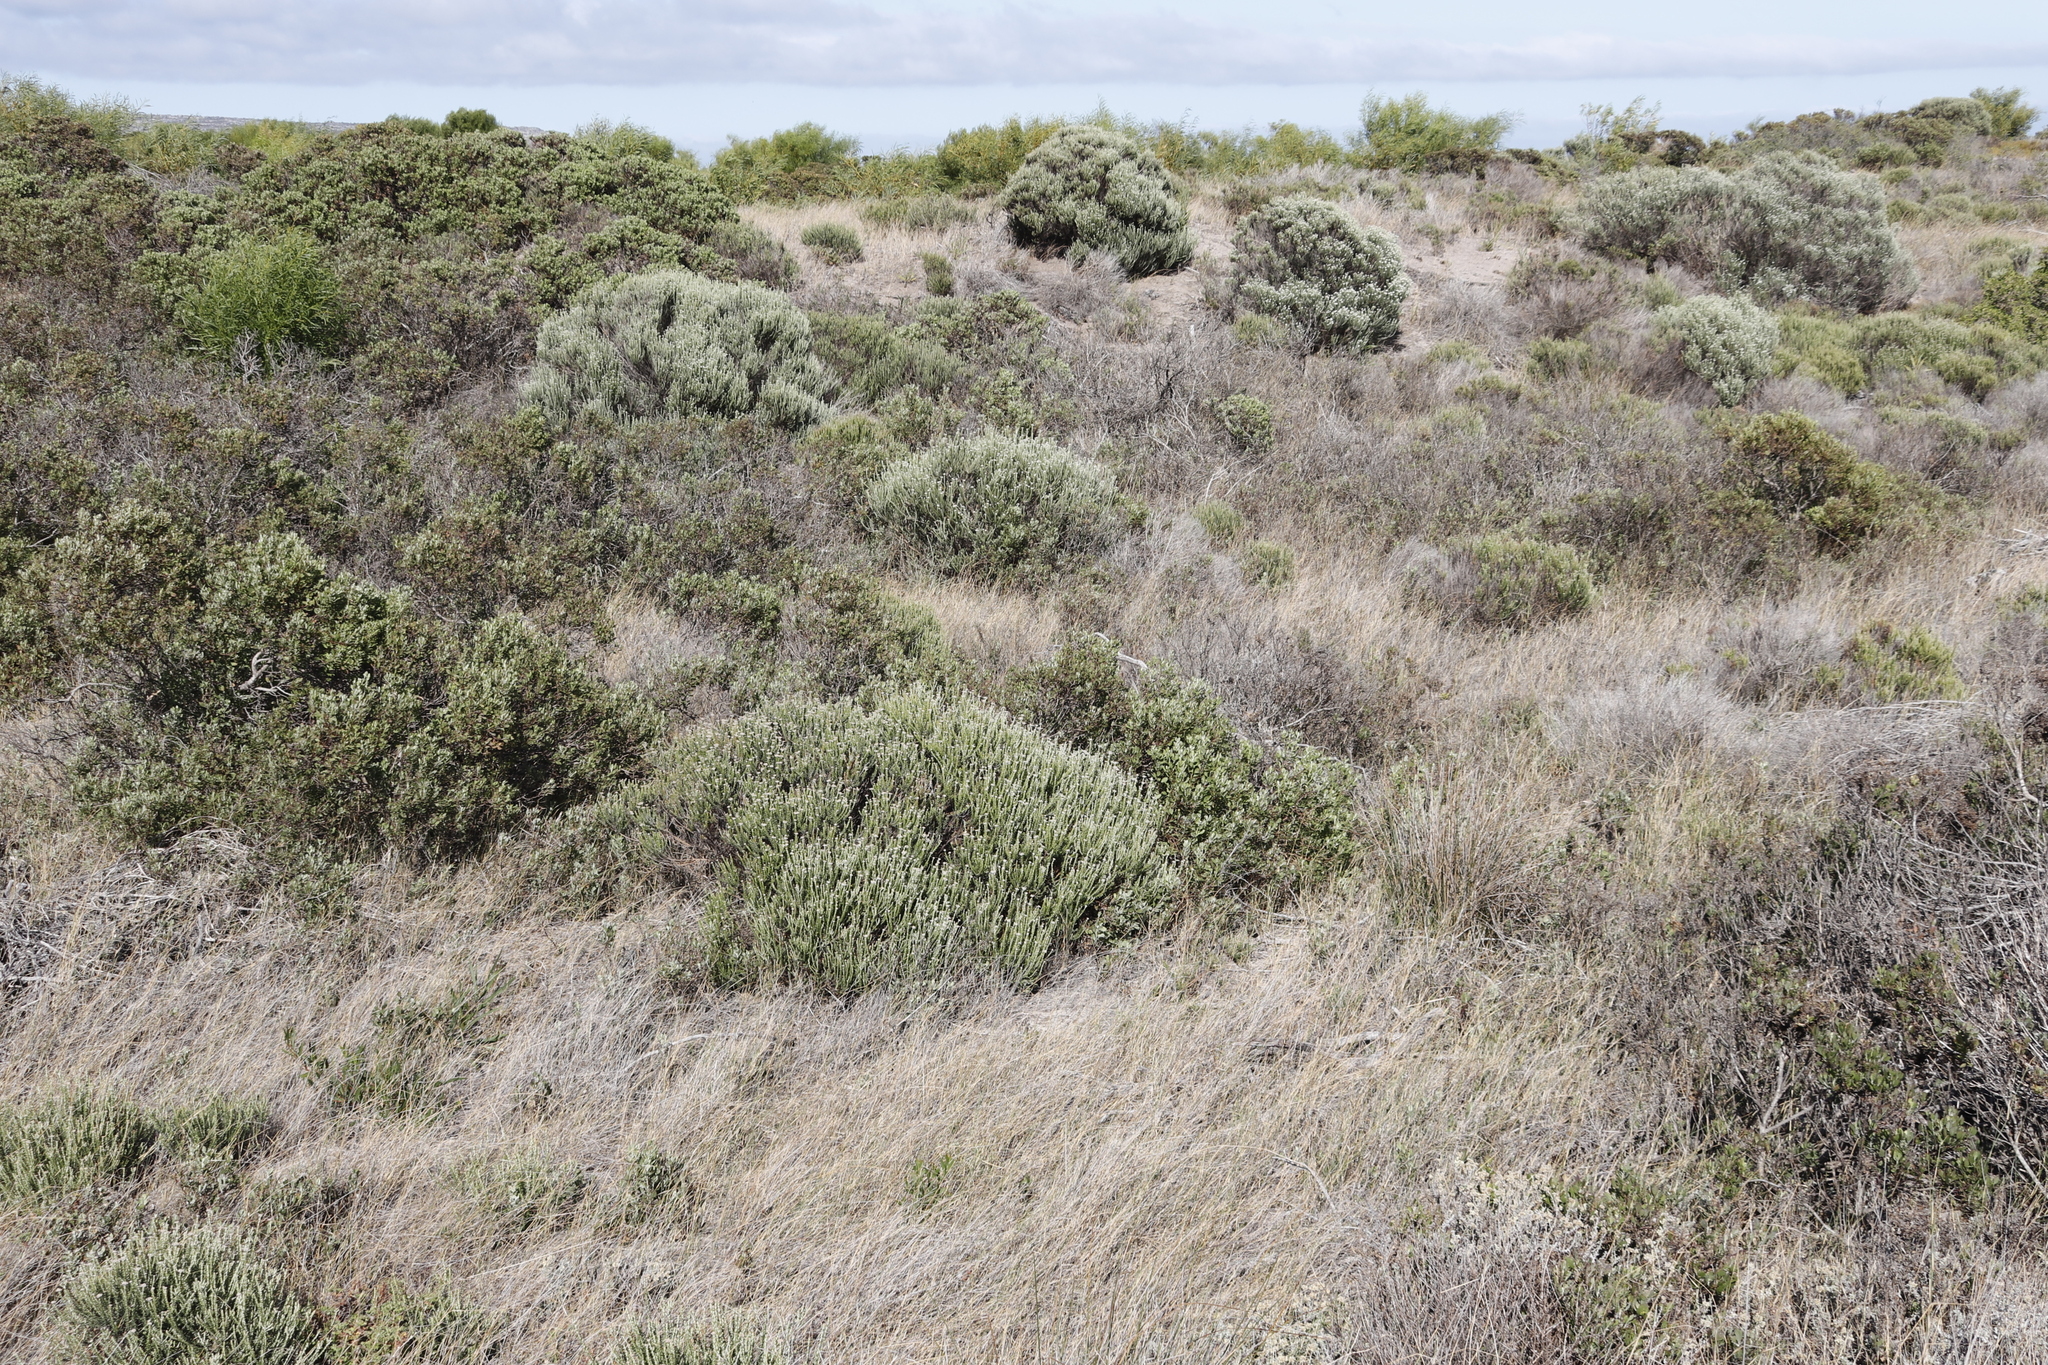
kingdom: Plantae
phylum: Tracheophyta
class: Magnoliopsida
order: Asterales
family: Asteraceae
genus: Metalasia
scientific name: Metalasia muricata
